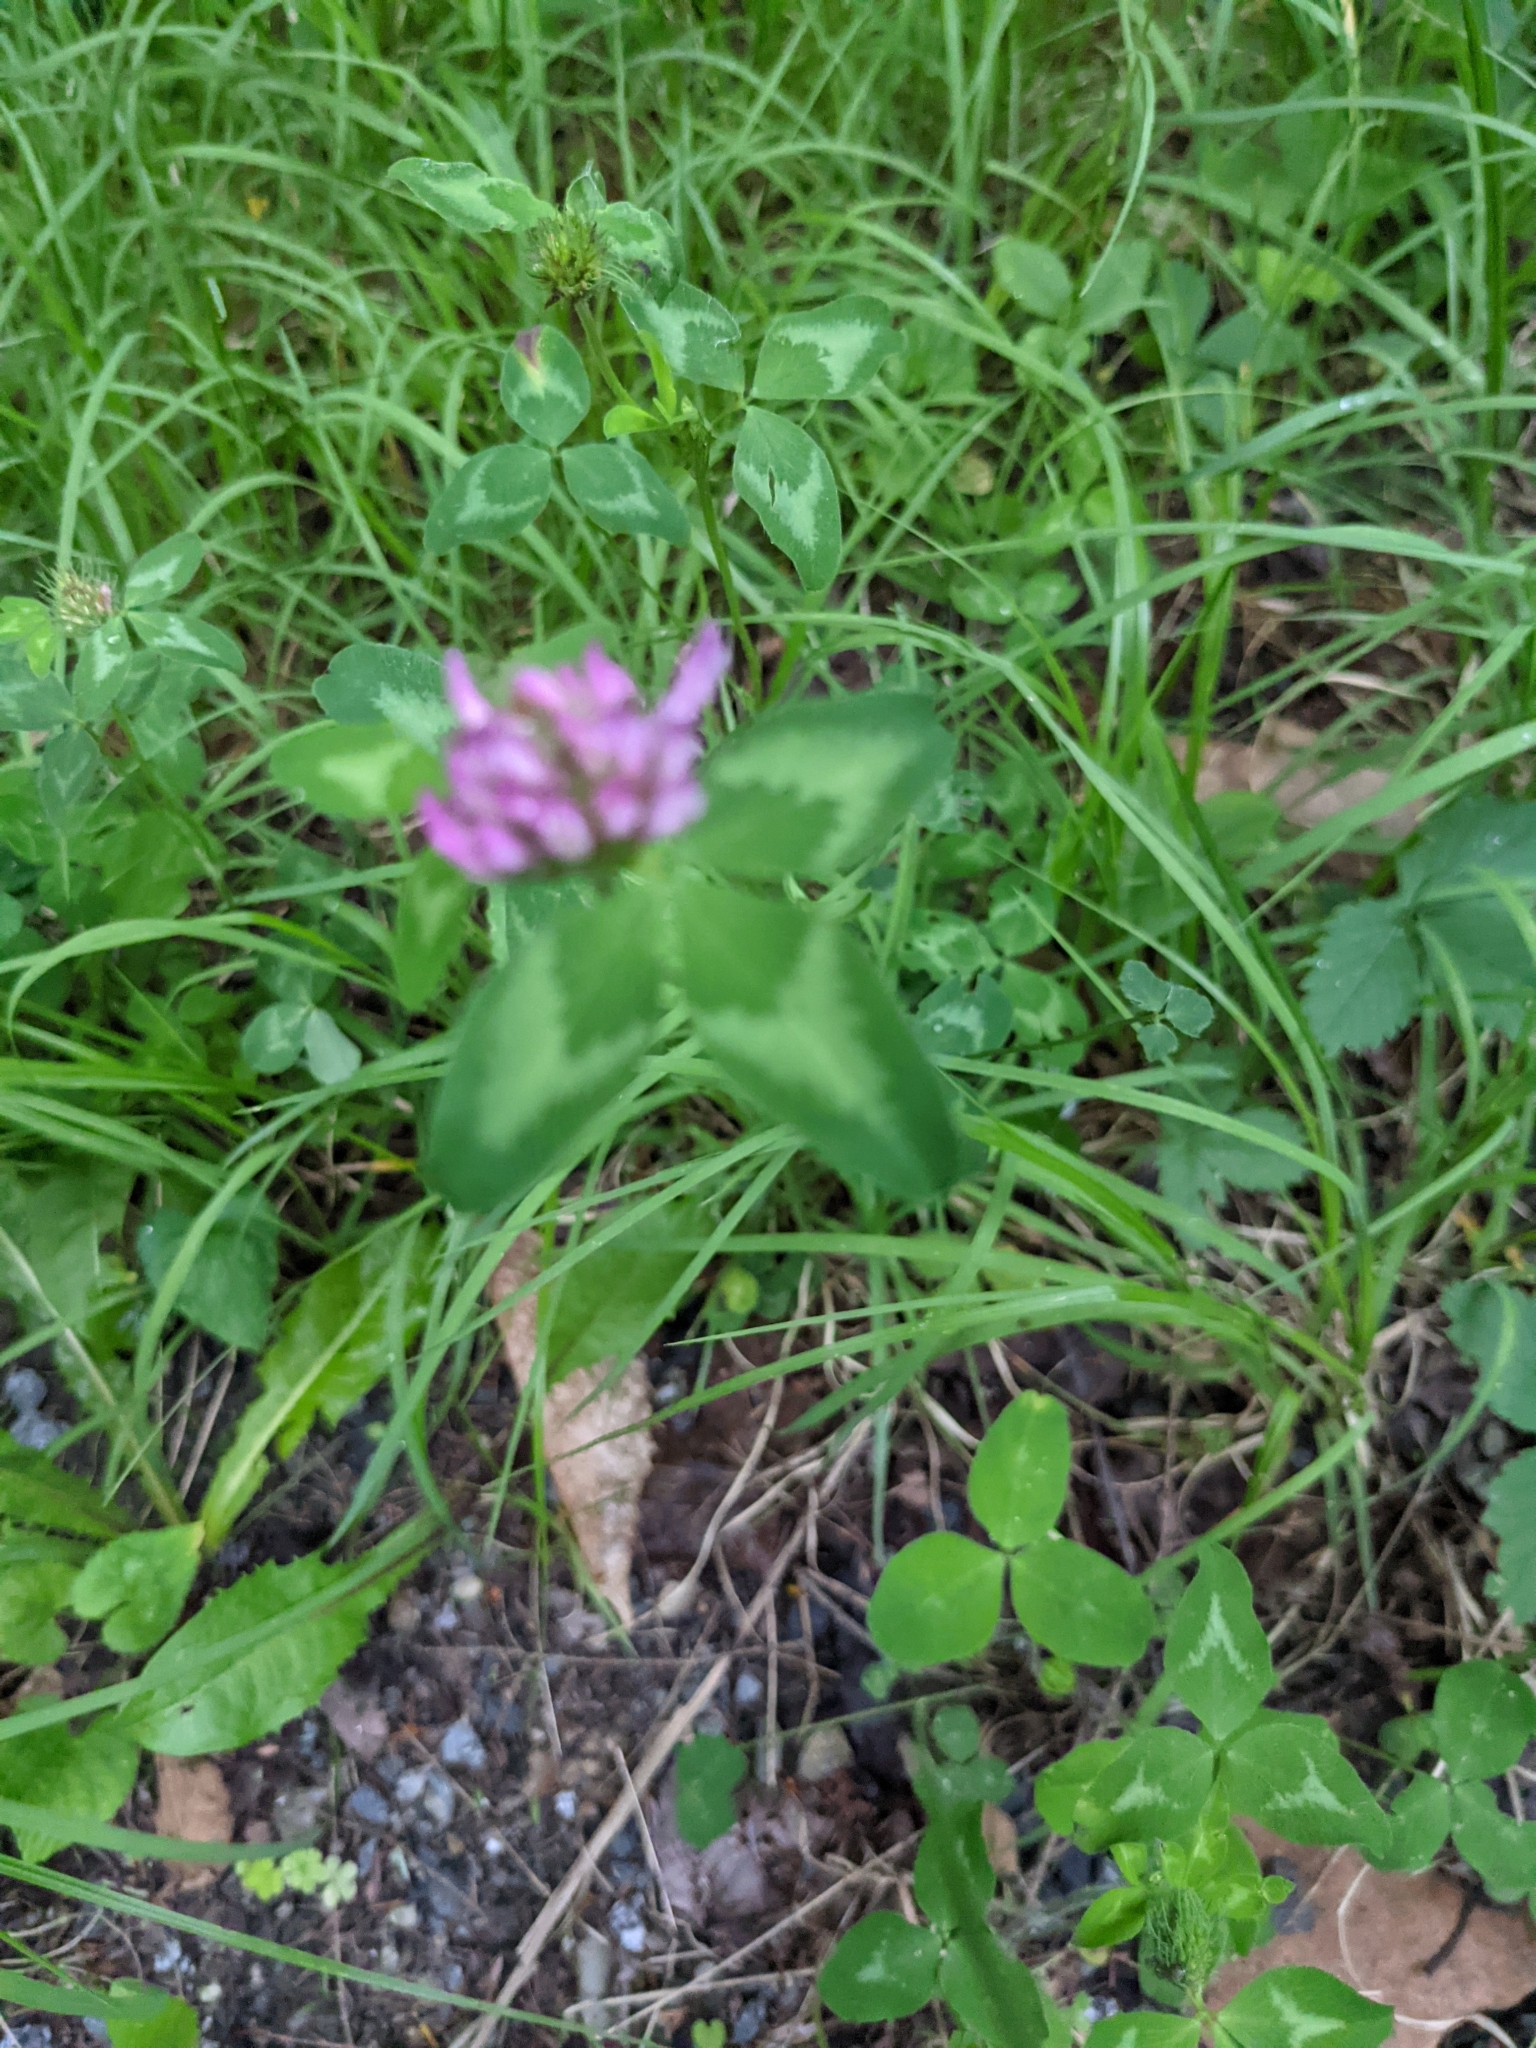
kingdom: Plantae
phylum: Tracheophyta
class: Magnoliopsida
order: Fabales
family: Fabaceae
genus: Trifolium
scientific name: Trifolium pratense
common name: Red clover
